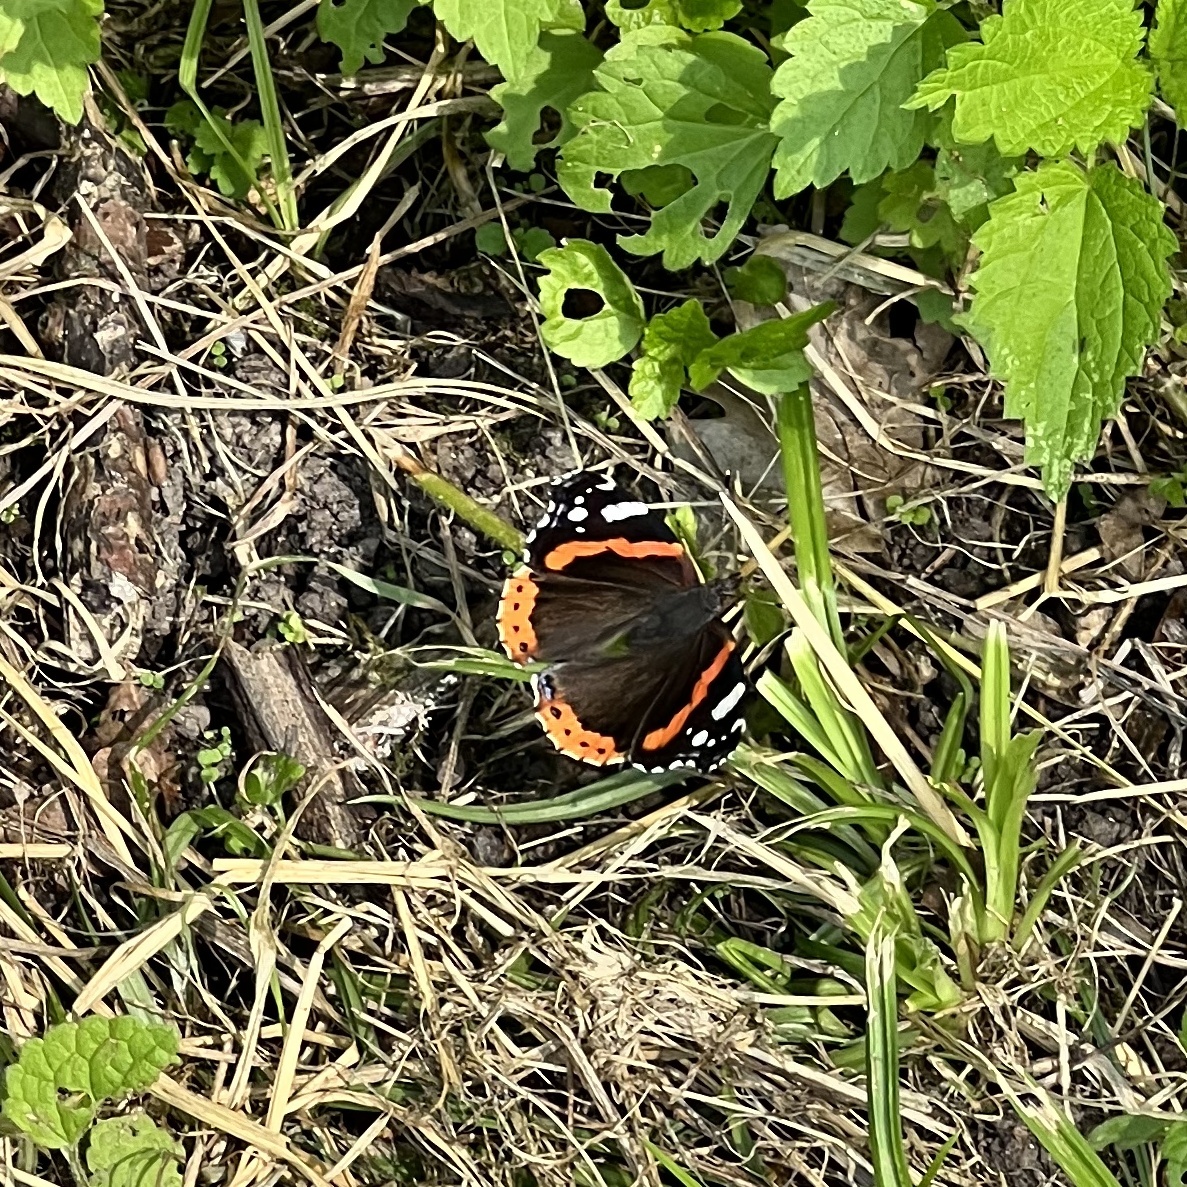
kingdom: Animalia
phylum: Arthropoda
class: Insecta
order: Lepidoptera
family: Nymphalidae
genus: Vanessa
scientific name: Vanessa atalanta
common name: Red admiral
